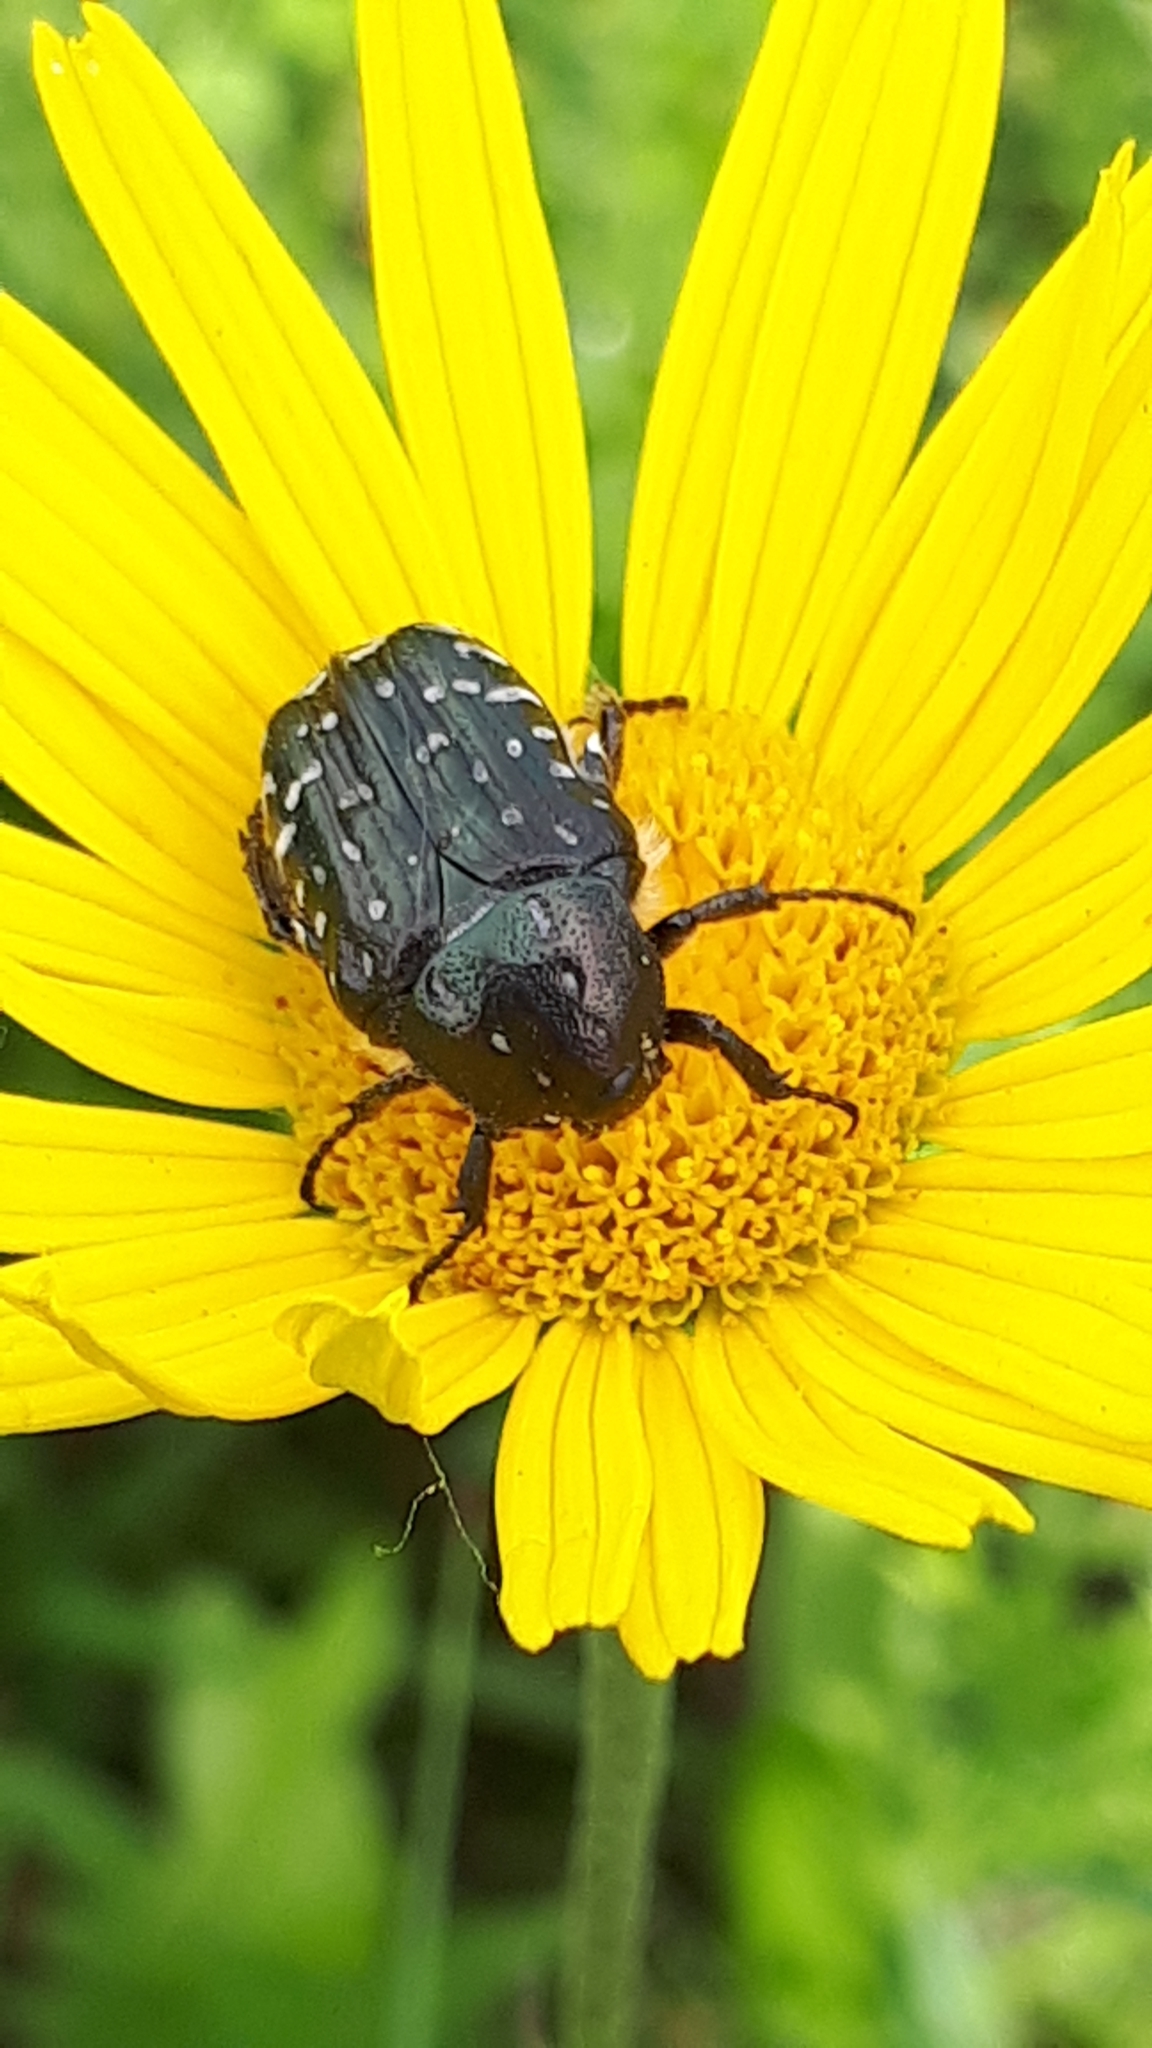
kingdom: Animalia
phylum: Arthropoda
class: Insecta
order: Coleoptera
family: Scarabaeidae
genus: Oxythyrea
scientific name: Oxythyrea funesta
